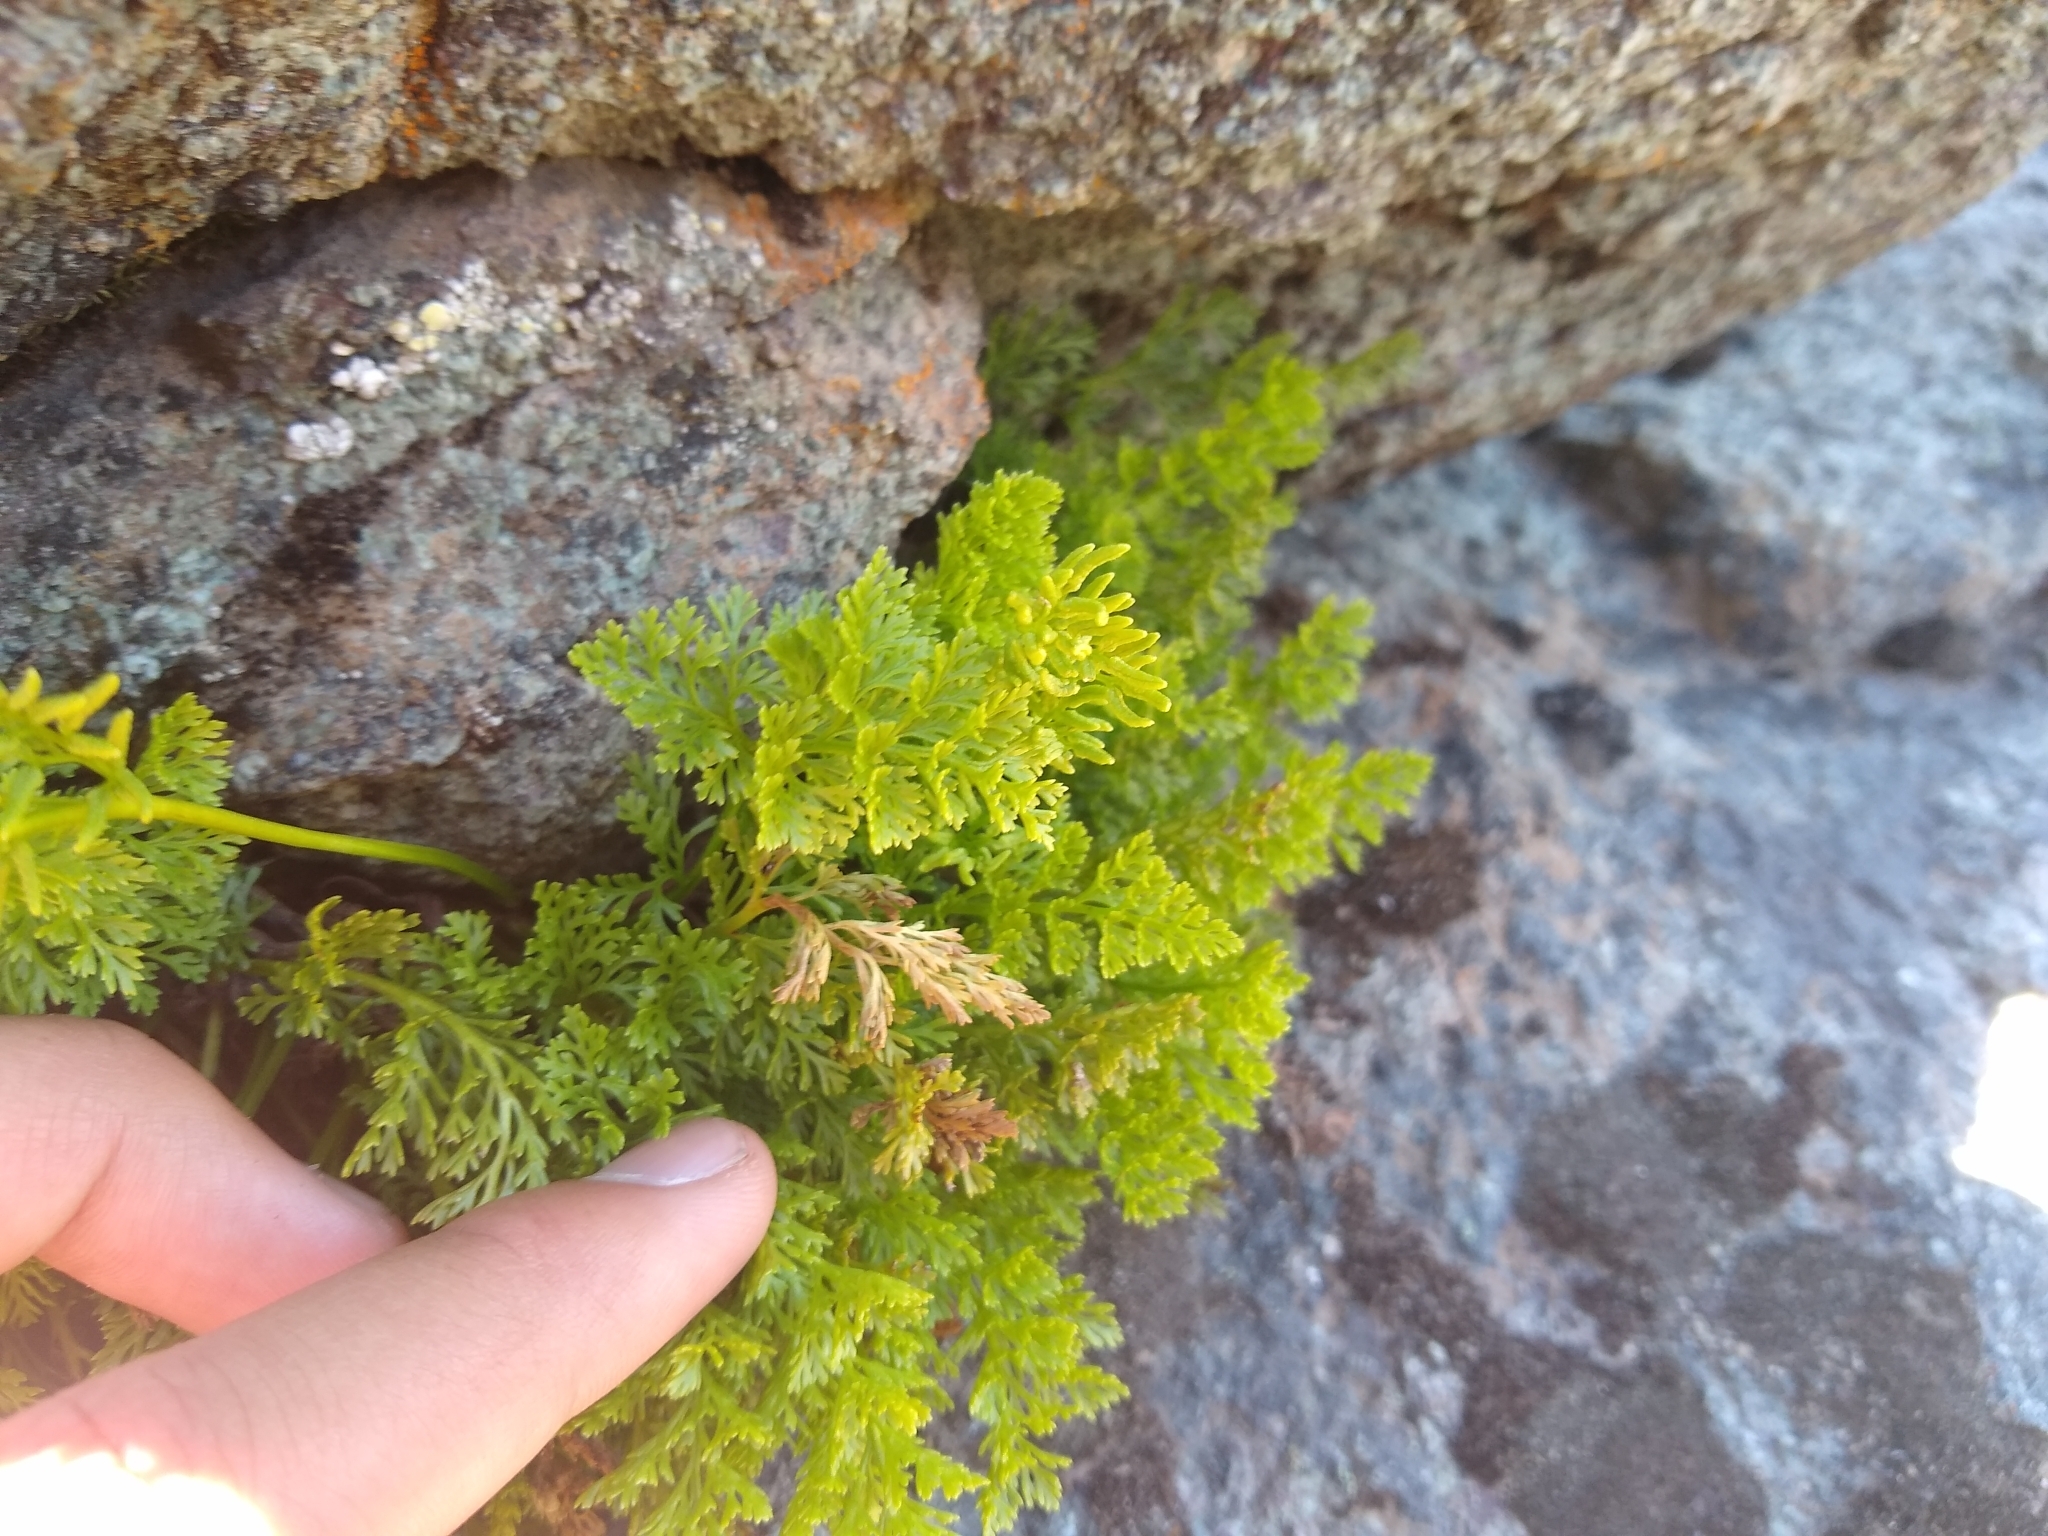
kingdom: Plantae
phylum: Tracheophyta
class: Polypodiopsida
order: Polypodiales
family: Pteridaceae
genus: Cryptogramma
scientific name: Cryptogramma fumariifolia
